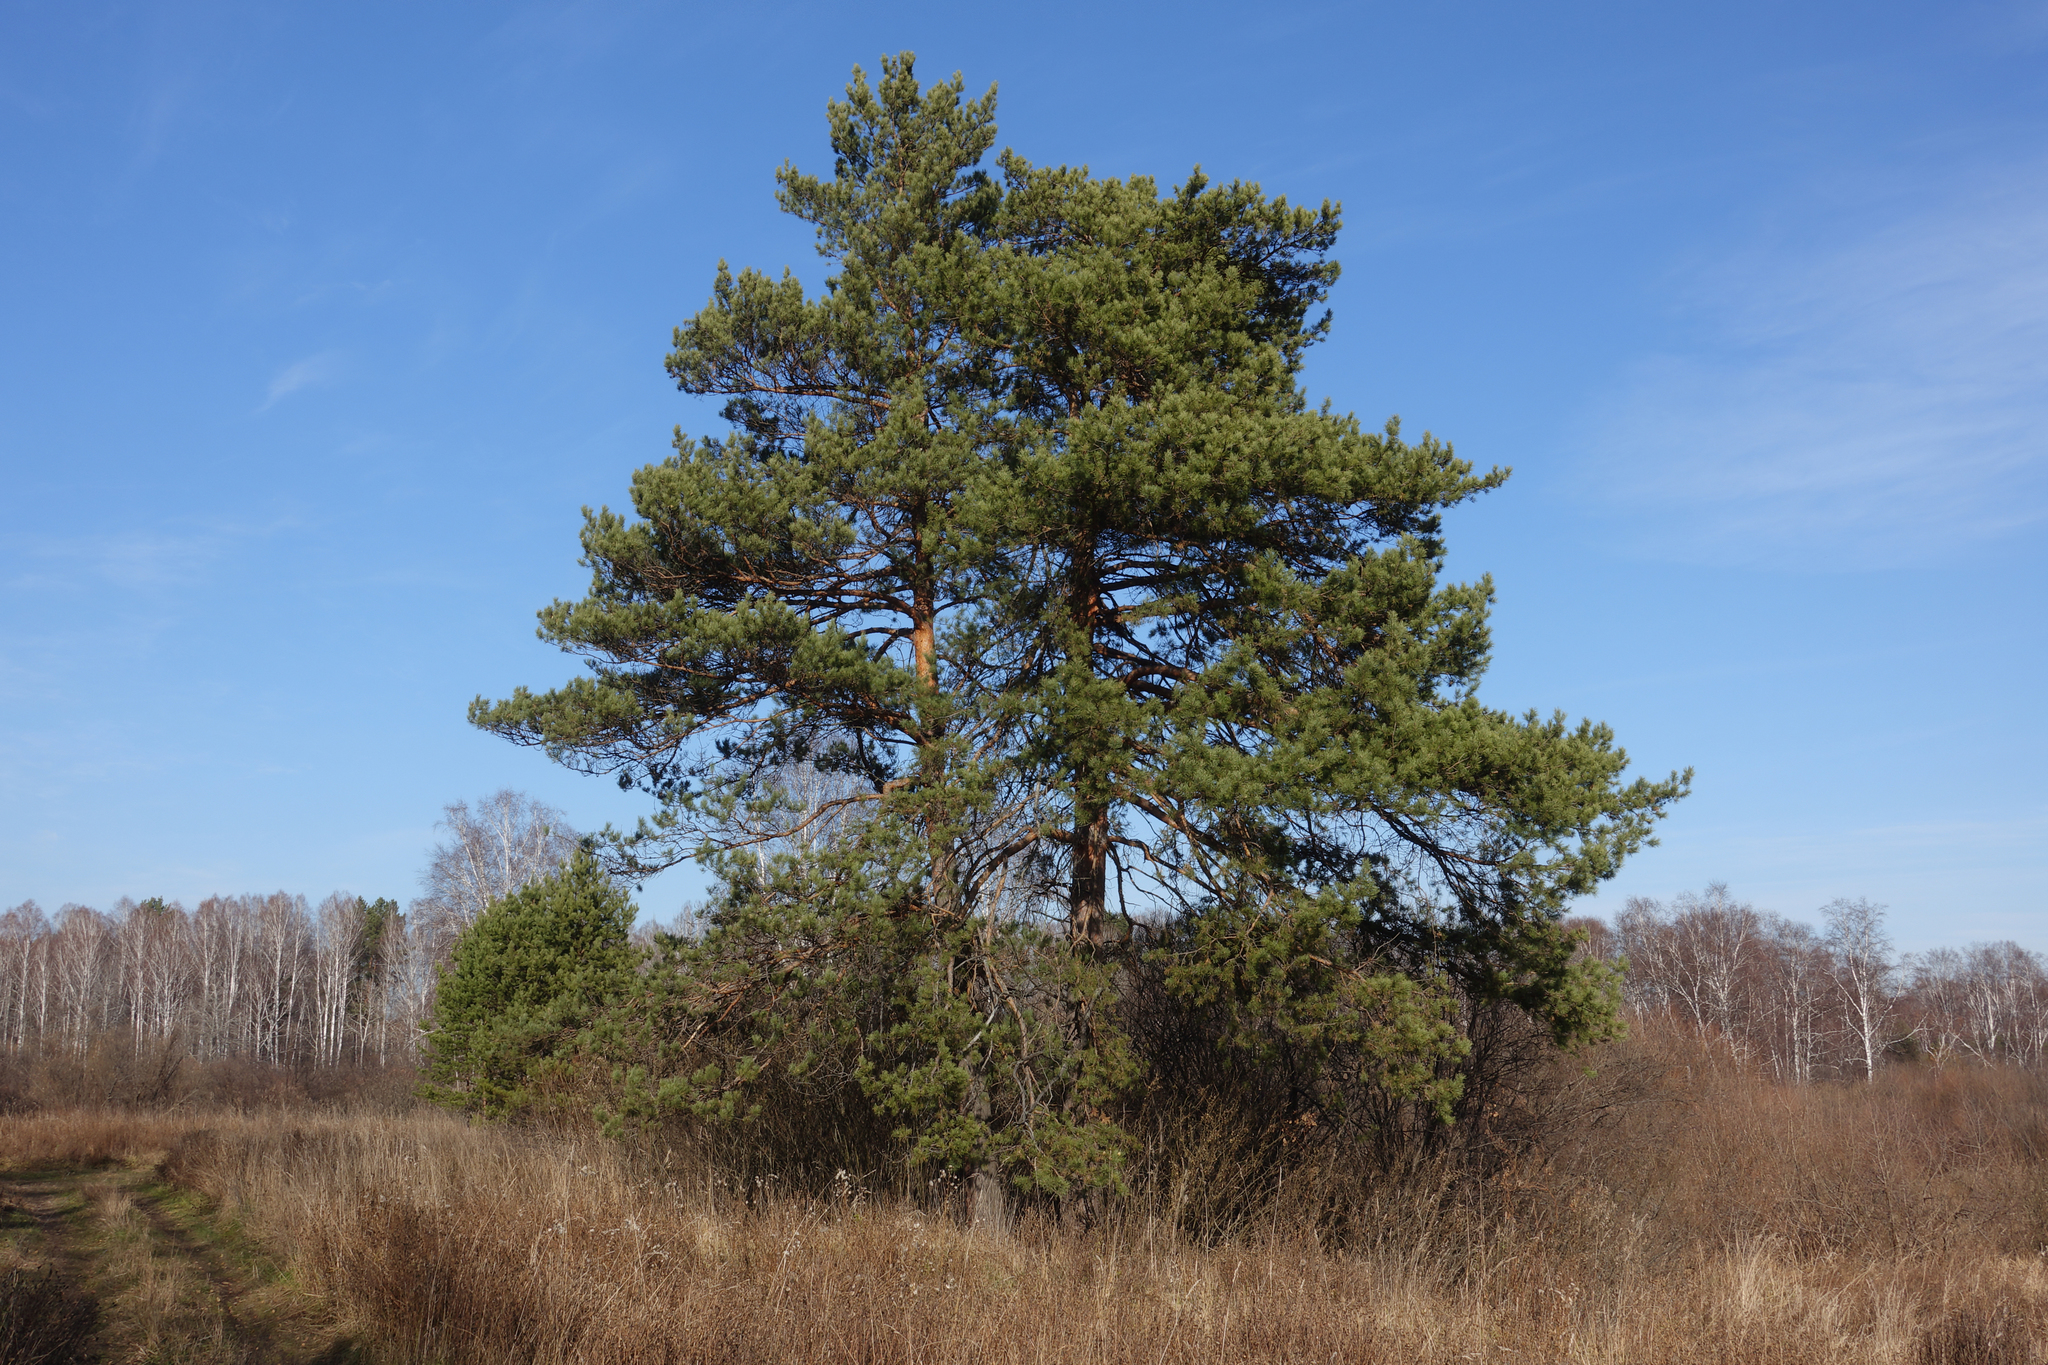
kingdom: Plantae
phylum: Tracheophyta
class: Pinopsida
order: Pinales
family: Pinaceae
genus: Pinus
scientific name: Pinus sylvestris
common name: Scots pine
